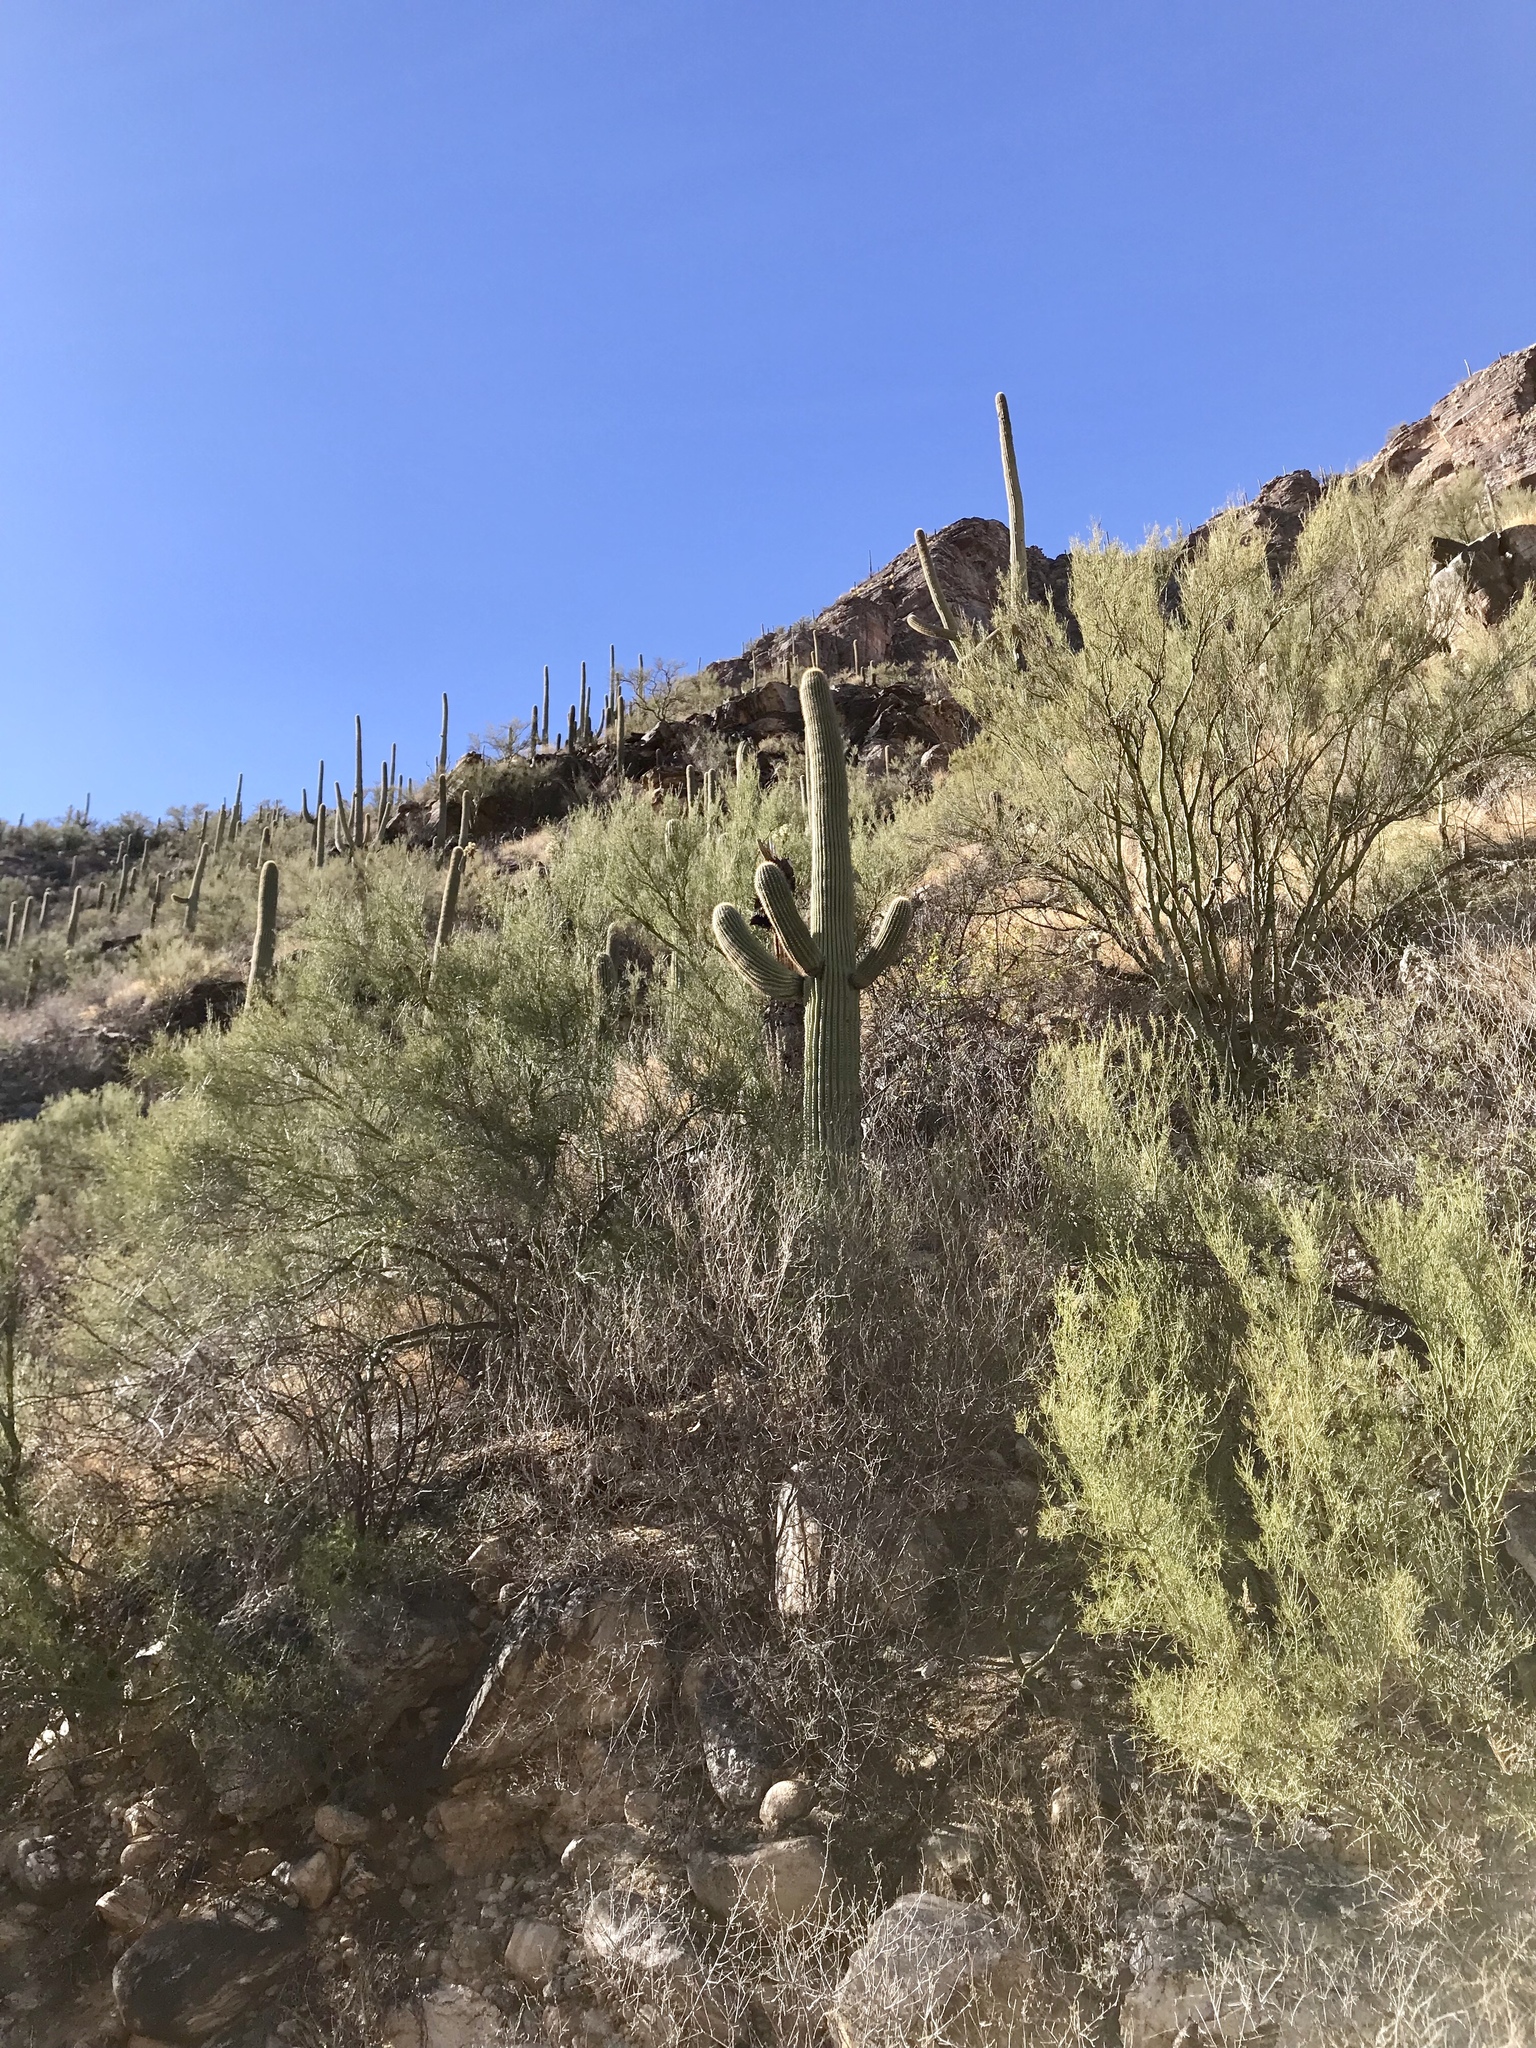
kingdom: Plantae
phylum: Tracheophyta
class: Magnoliopsida
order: Caryophyllales
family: Cactaceae
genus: Carnegiea
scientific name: Carnegiea gigantea
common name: Saguaro
